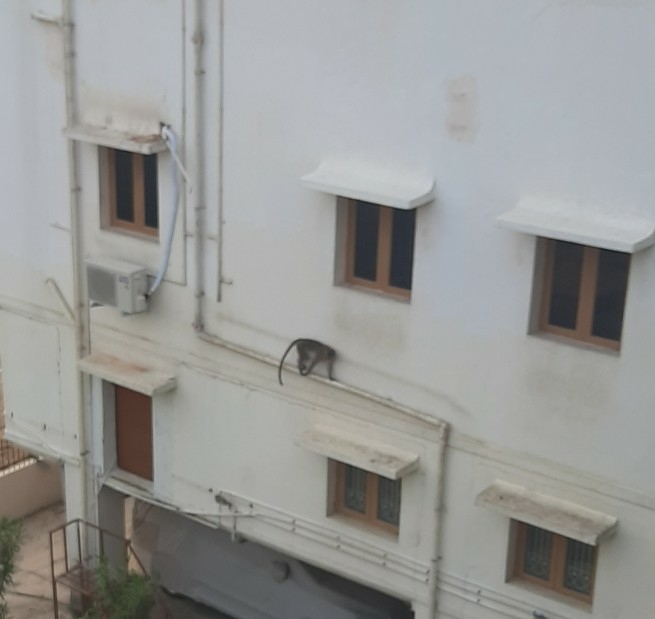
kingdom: Animalia
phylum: Chordata
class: Mammalia
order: Primates
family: Cercopithecidae
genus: Macaca
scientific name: Macaca radiata
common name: Bonnet macaque
